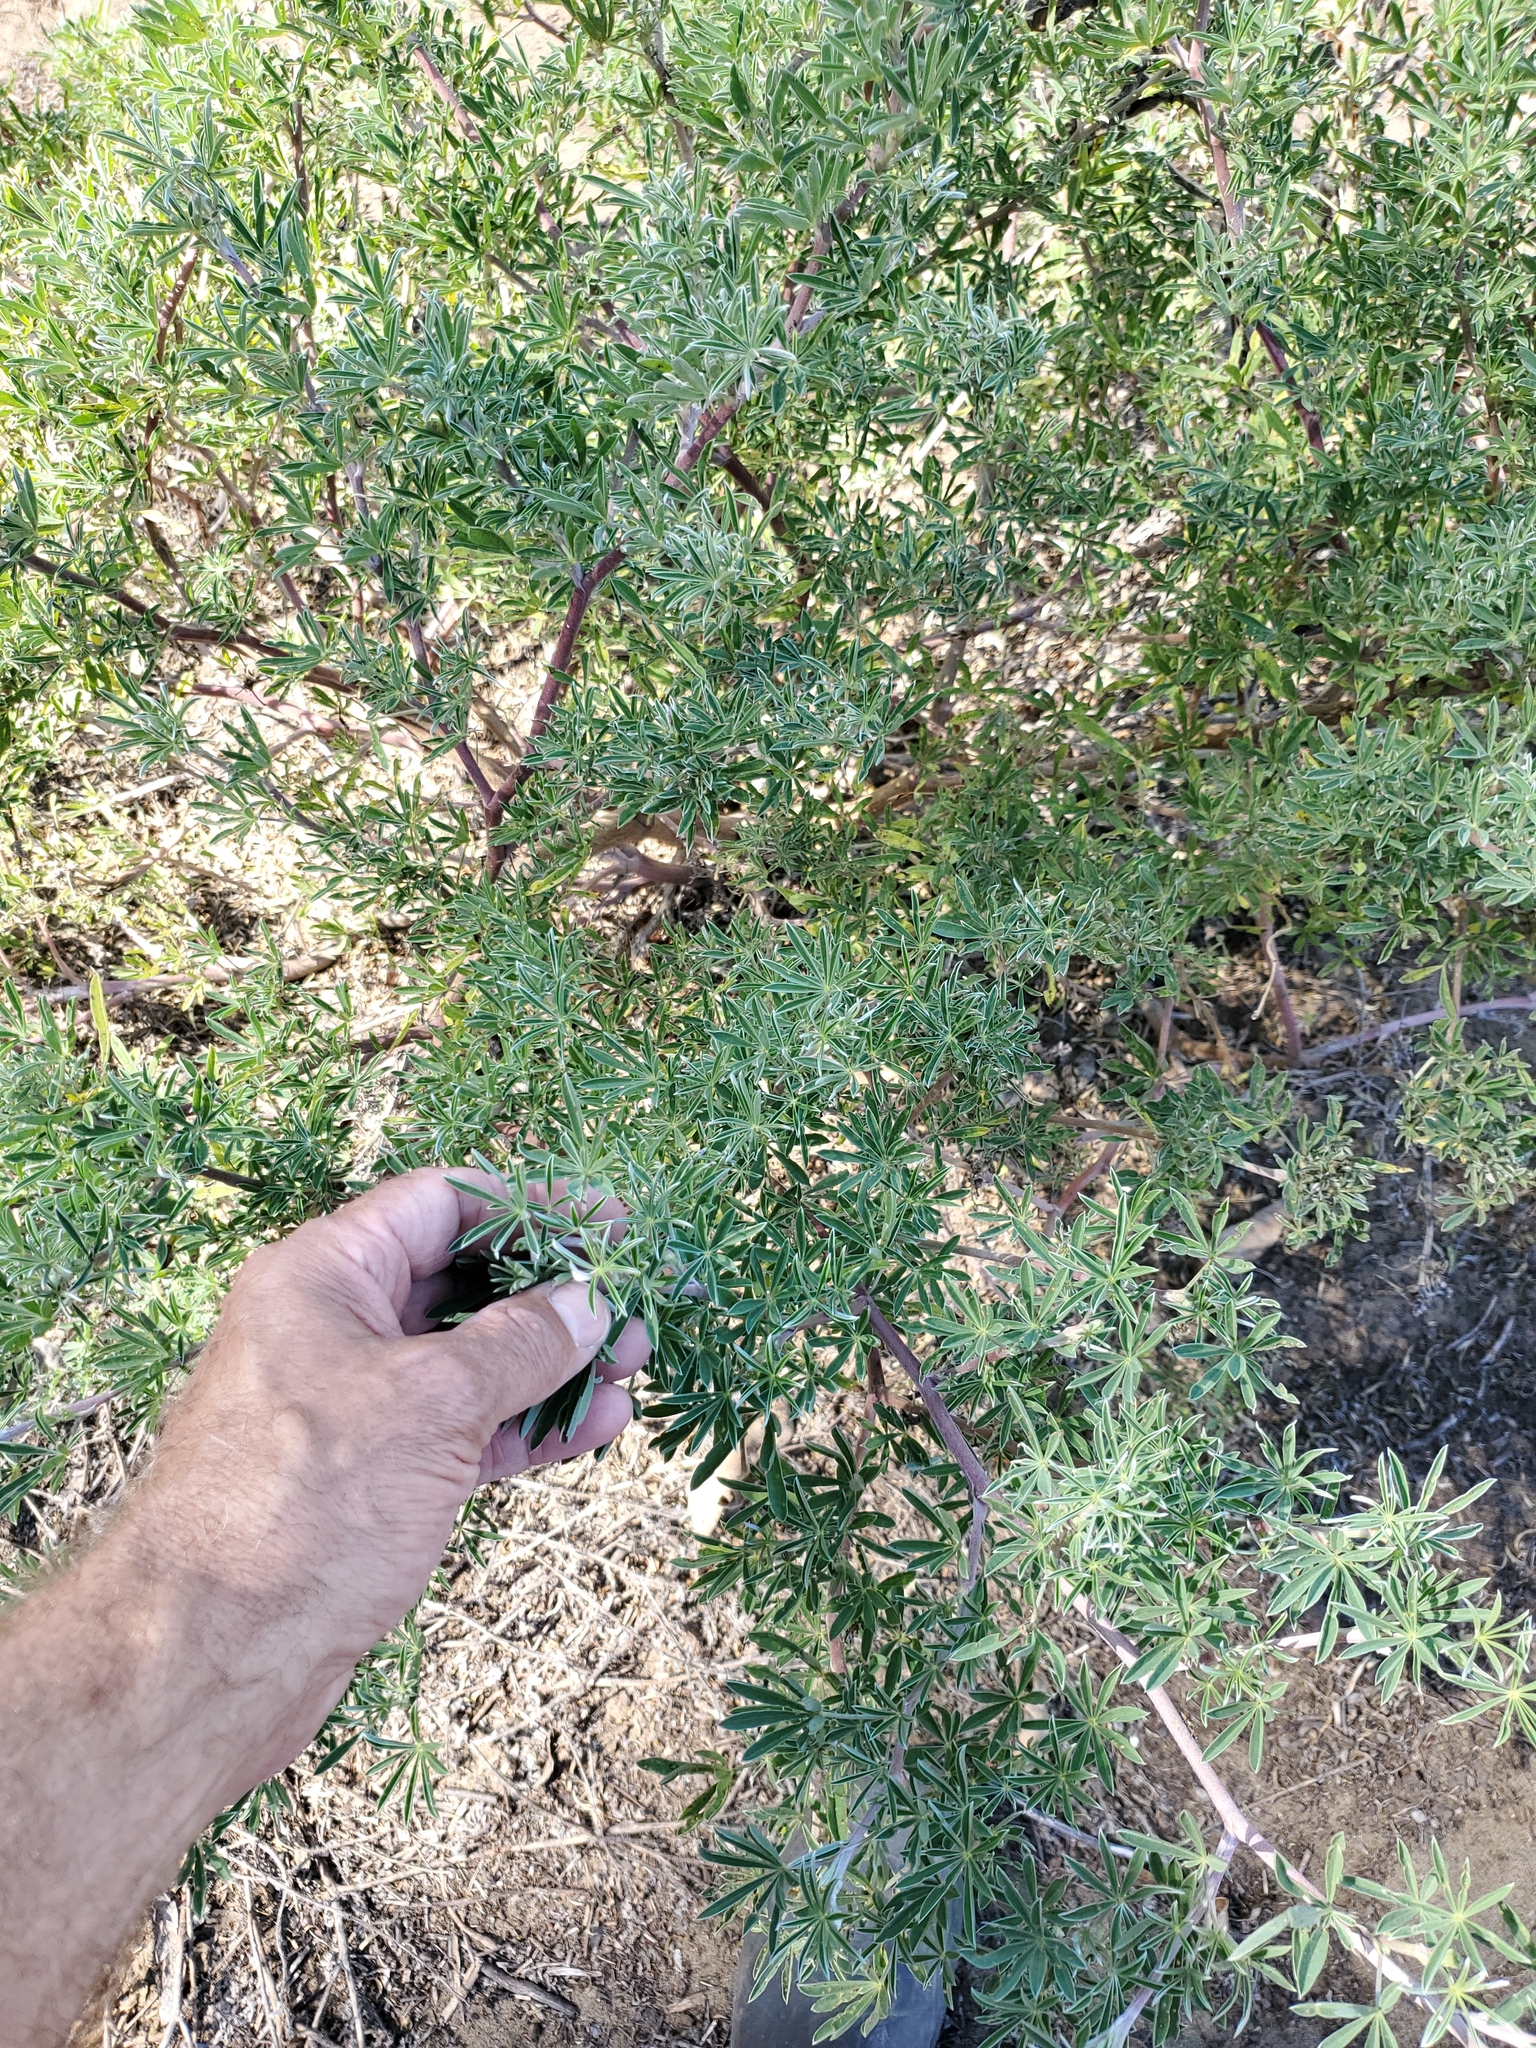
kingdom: Plantae
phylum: Tracheophyta
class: Magnoliopsida
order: Fabales
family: Fabaceae
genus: Lupinus
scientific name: Lupinus arboreus
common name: Yellow bush lupine
